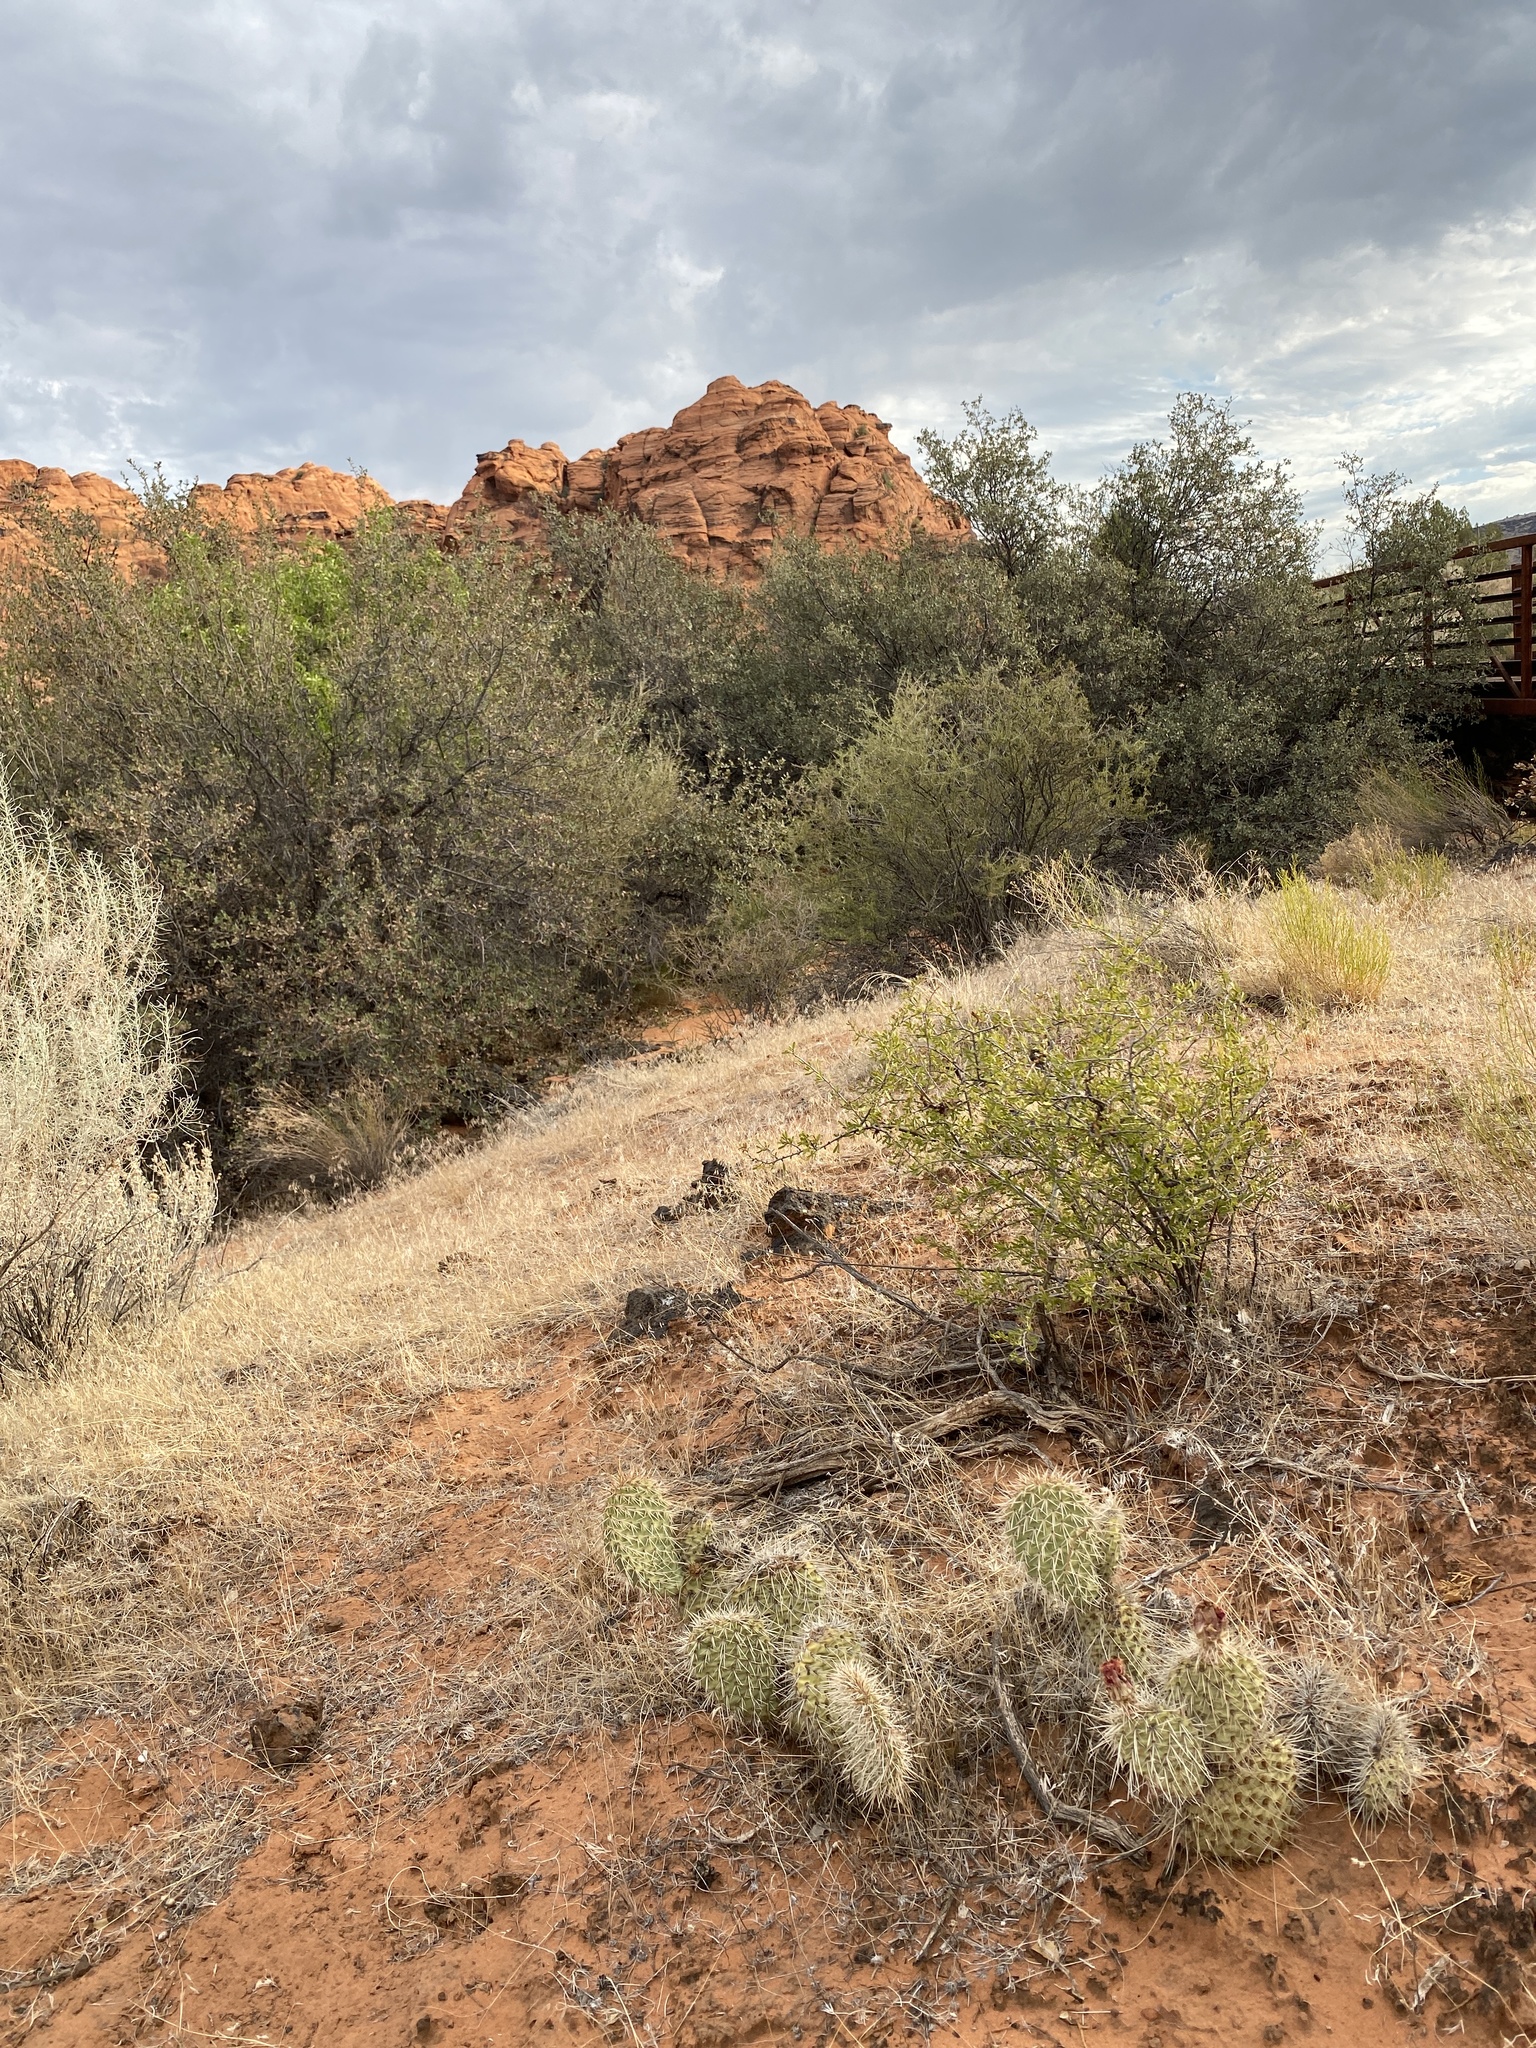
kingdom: Plantae
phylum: Tracheophyta
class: Magnoliopsida
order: Caryophyllales
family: Cactaceae
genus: Opuntia
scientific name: Opuntia polyacantha
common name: Plains prickly-pear
